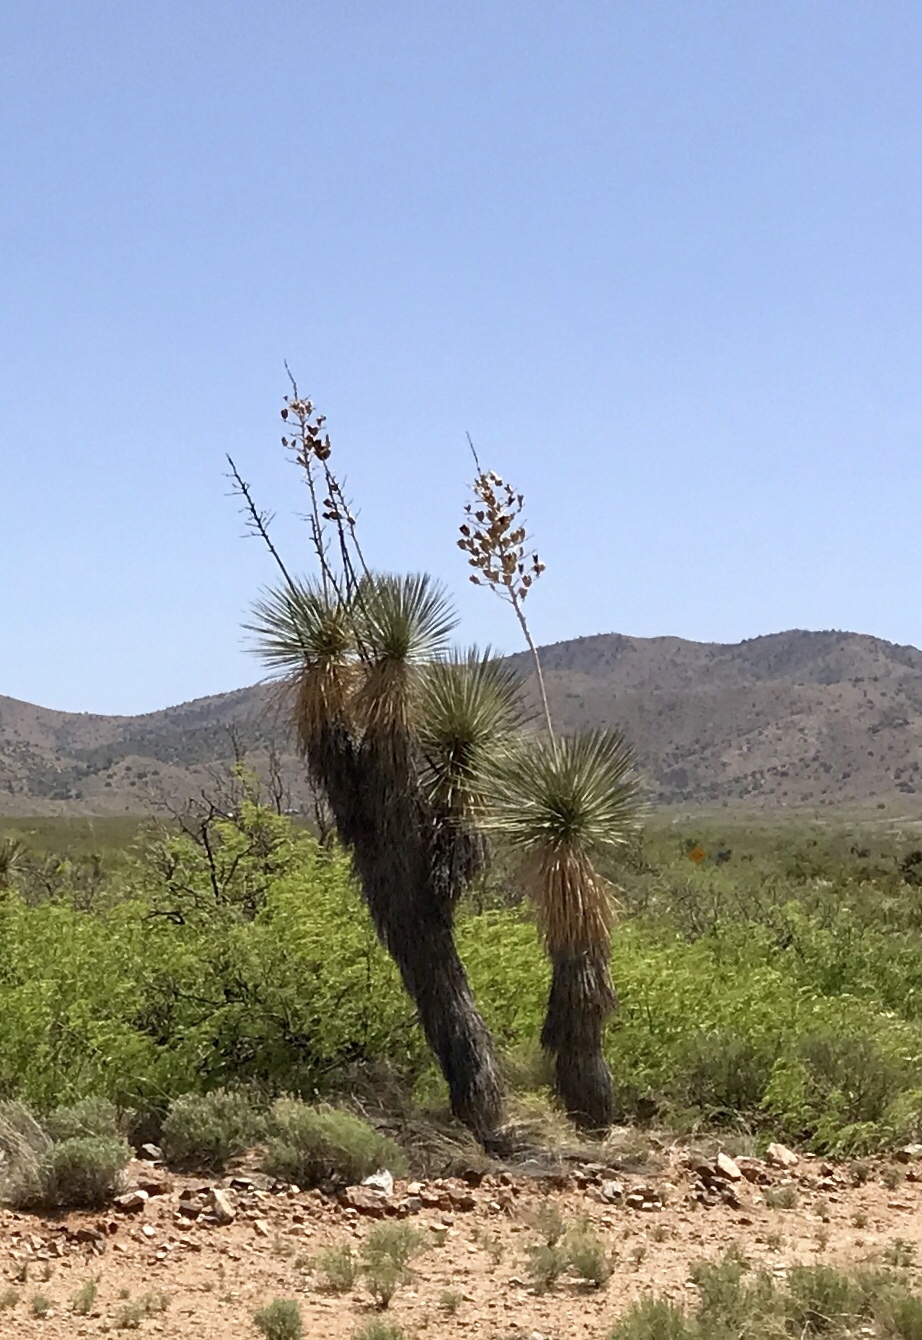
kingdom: Plantae
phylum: Tracheophyta
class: Liliopsida
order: Asparagales
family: Asparagaceae
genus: Yucca
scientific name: Yucca elata
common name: Palmella
